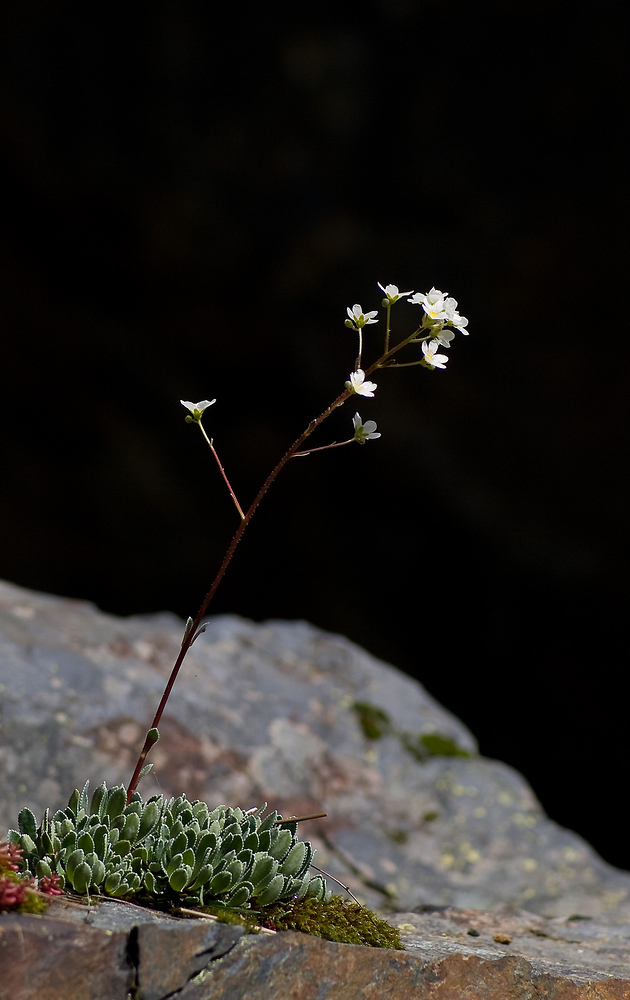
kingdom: Plantae
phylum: Tracheophyta
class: Magnoliopsida
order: Saxifragales
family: Saxifragaceae
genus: Saxifraga
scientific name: Saxifraga paniculata
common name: Livelong saxifrage
